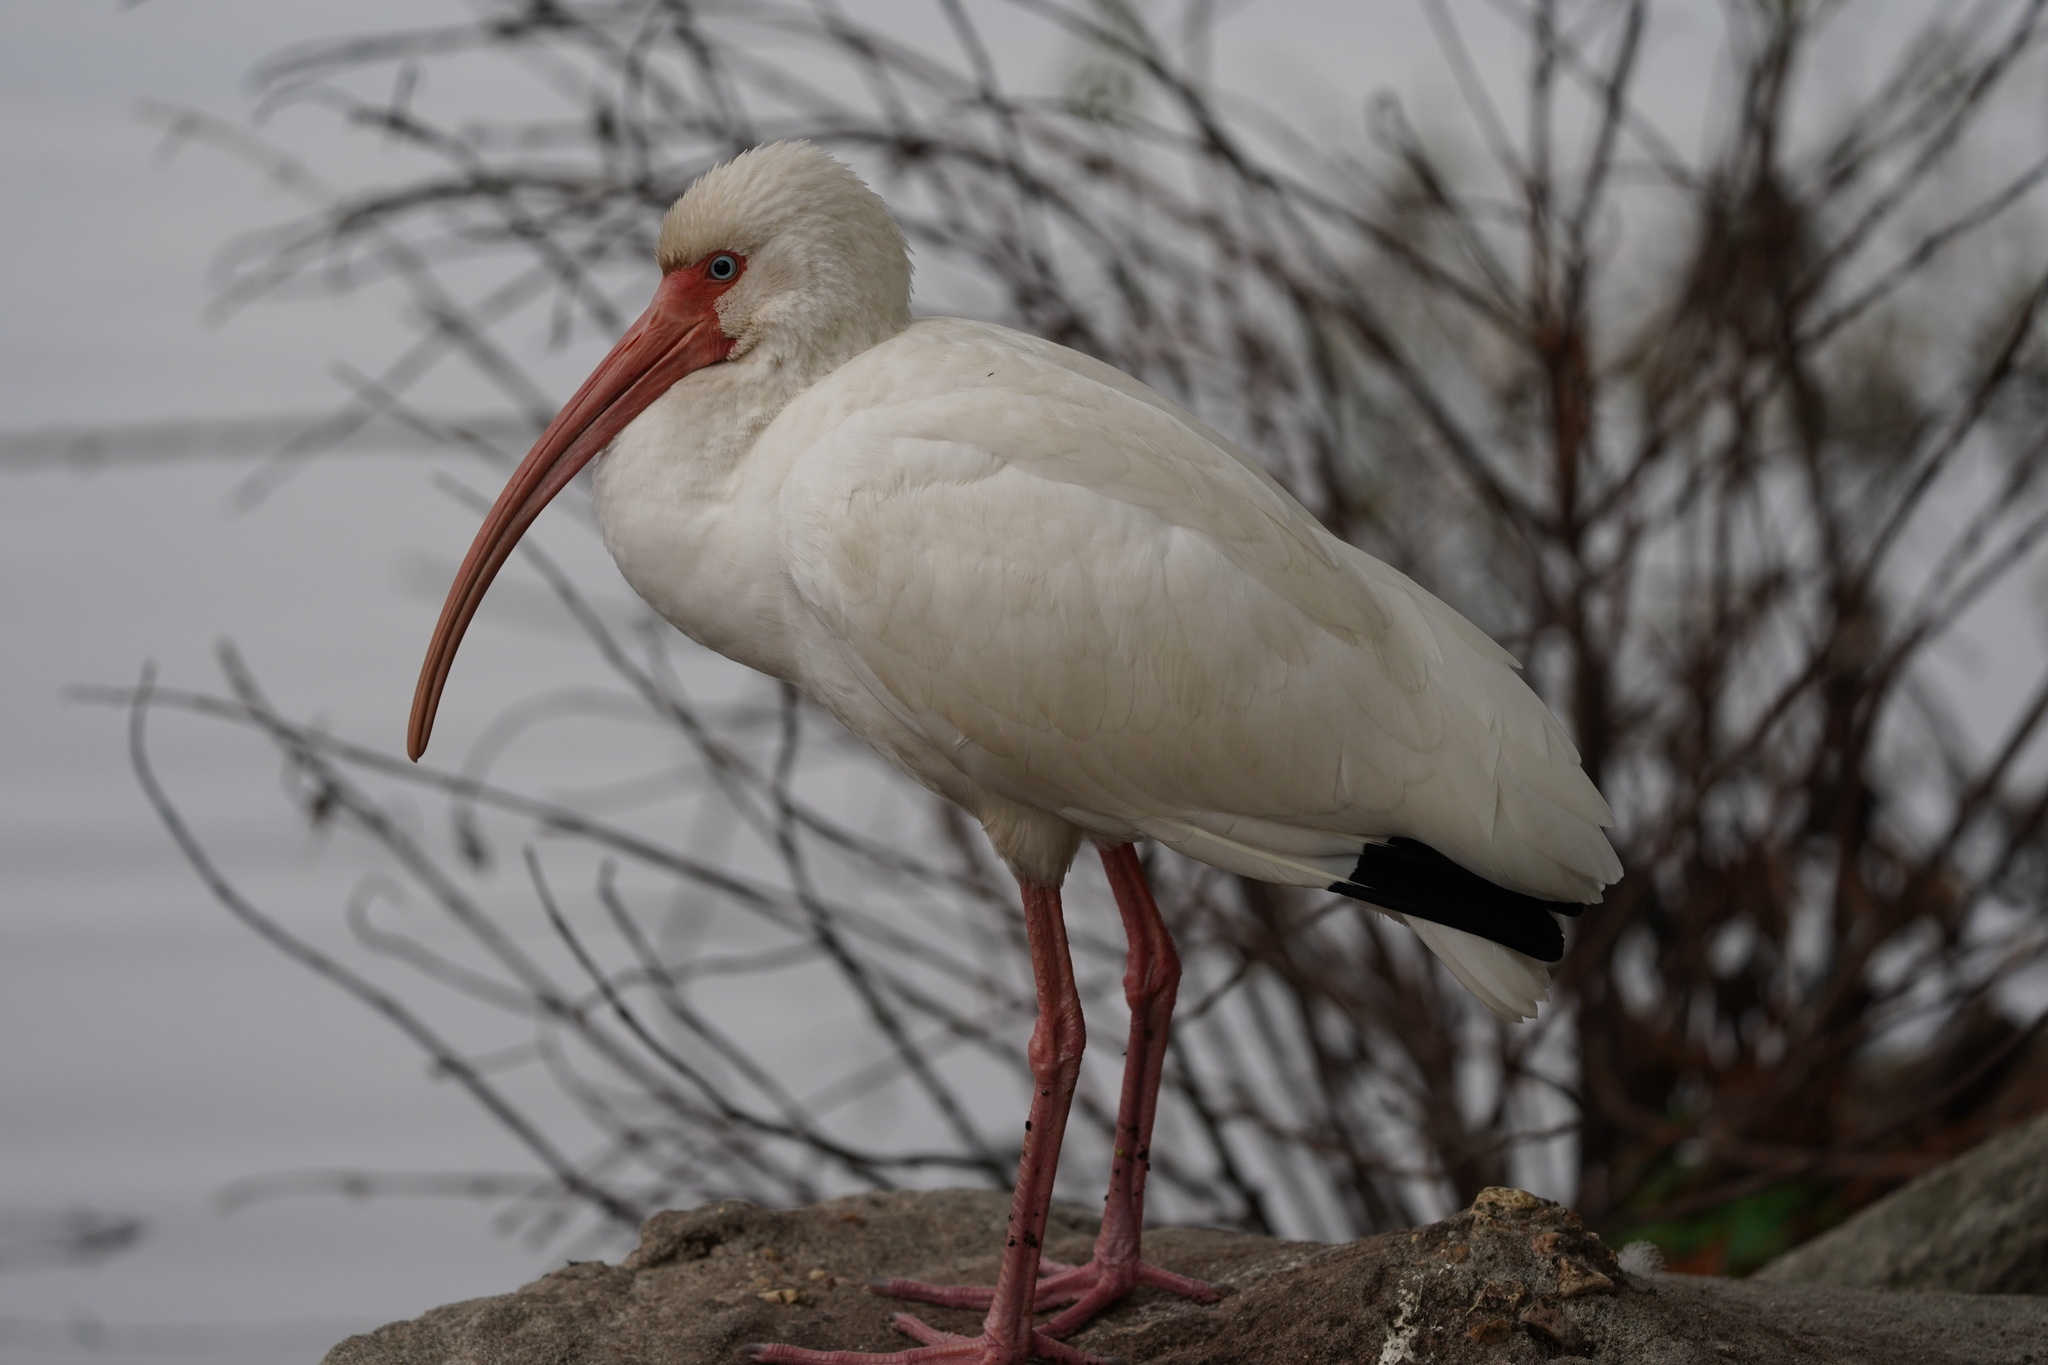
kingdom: Animalia
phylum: Chordata
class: Aves
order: Pelecaniformes
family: Threskiornithidae
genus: Eudocimus
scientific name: Eudocimus albus
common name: White ibis
